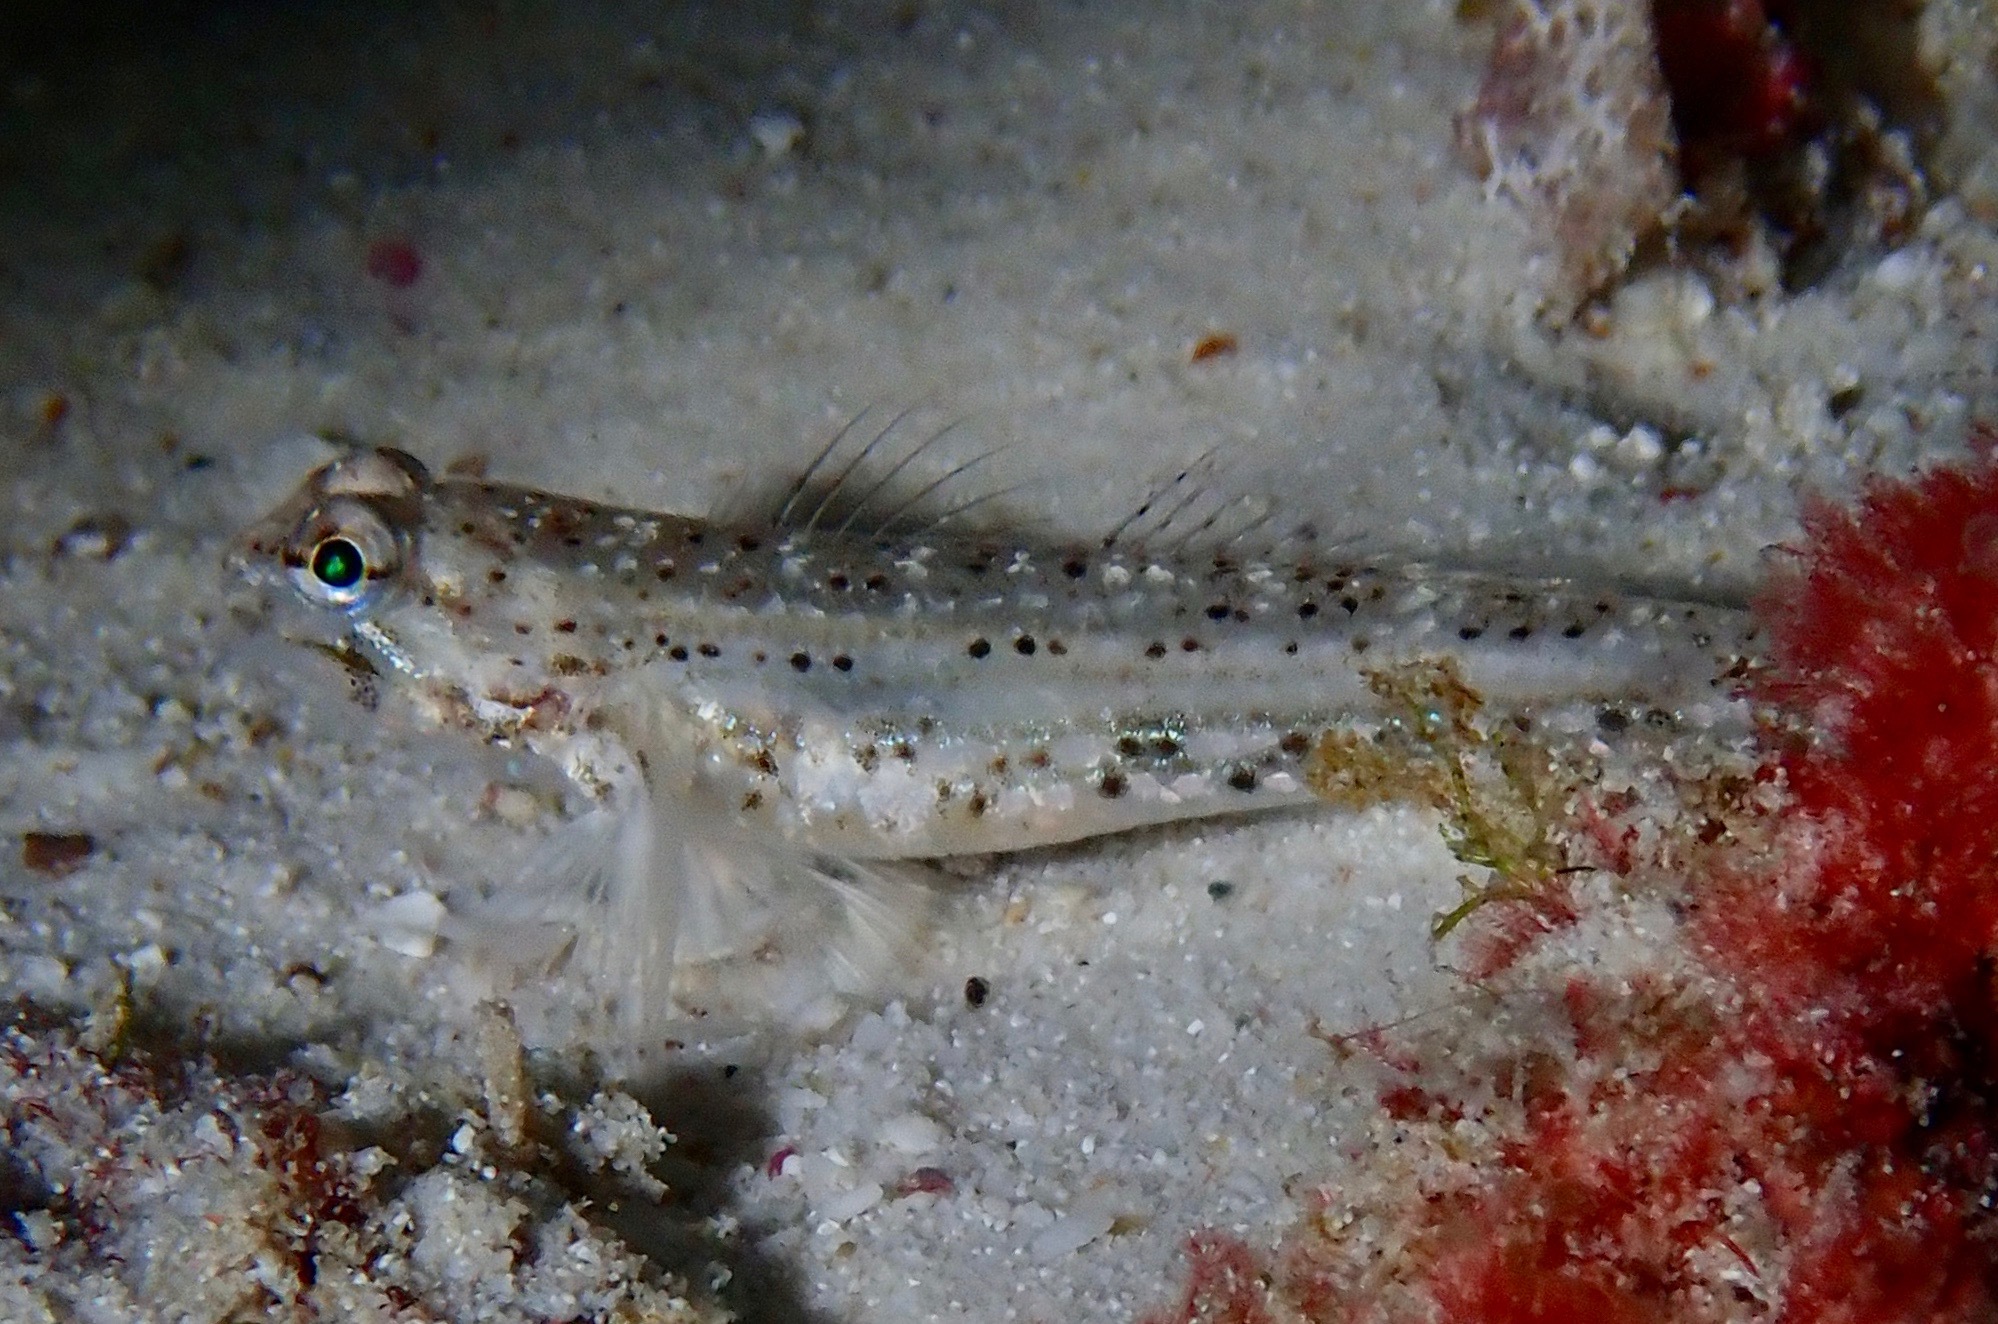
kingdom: Animalia
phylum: Chordata
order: Perciformes
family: Gobiidae
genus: Istigobius
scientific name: Istigobius goldmanni
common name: Goldman's goby
